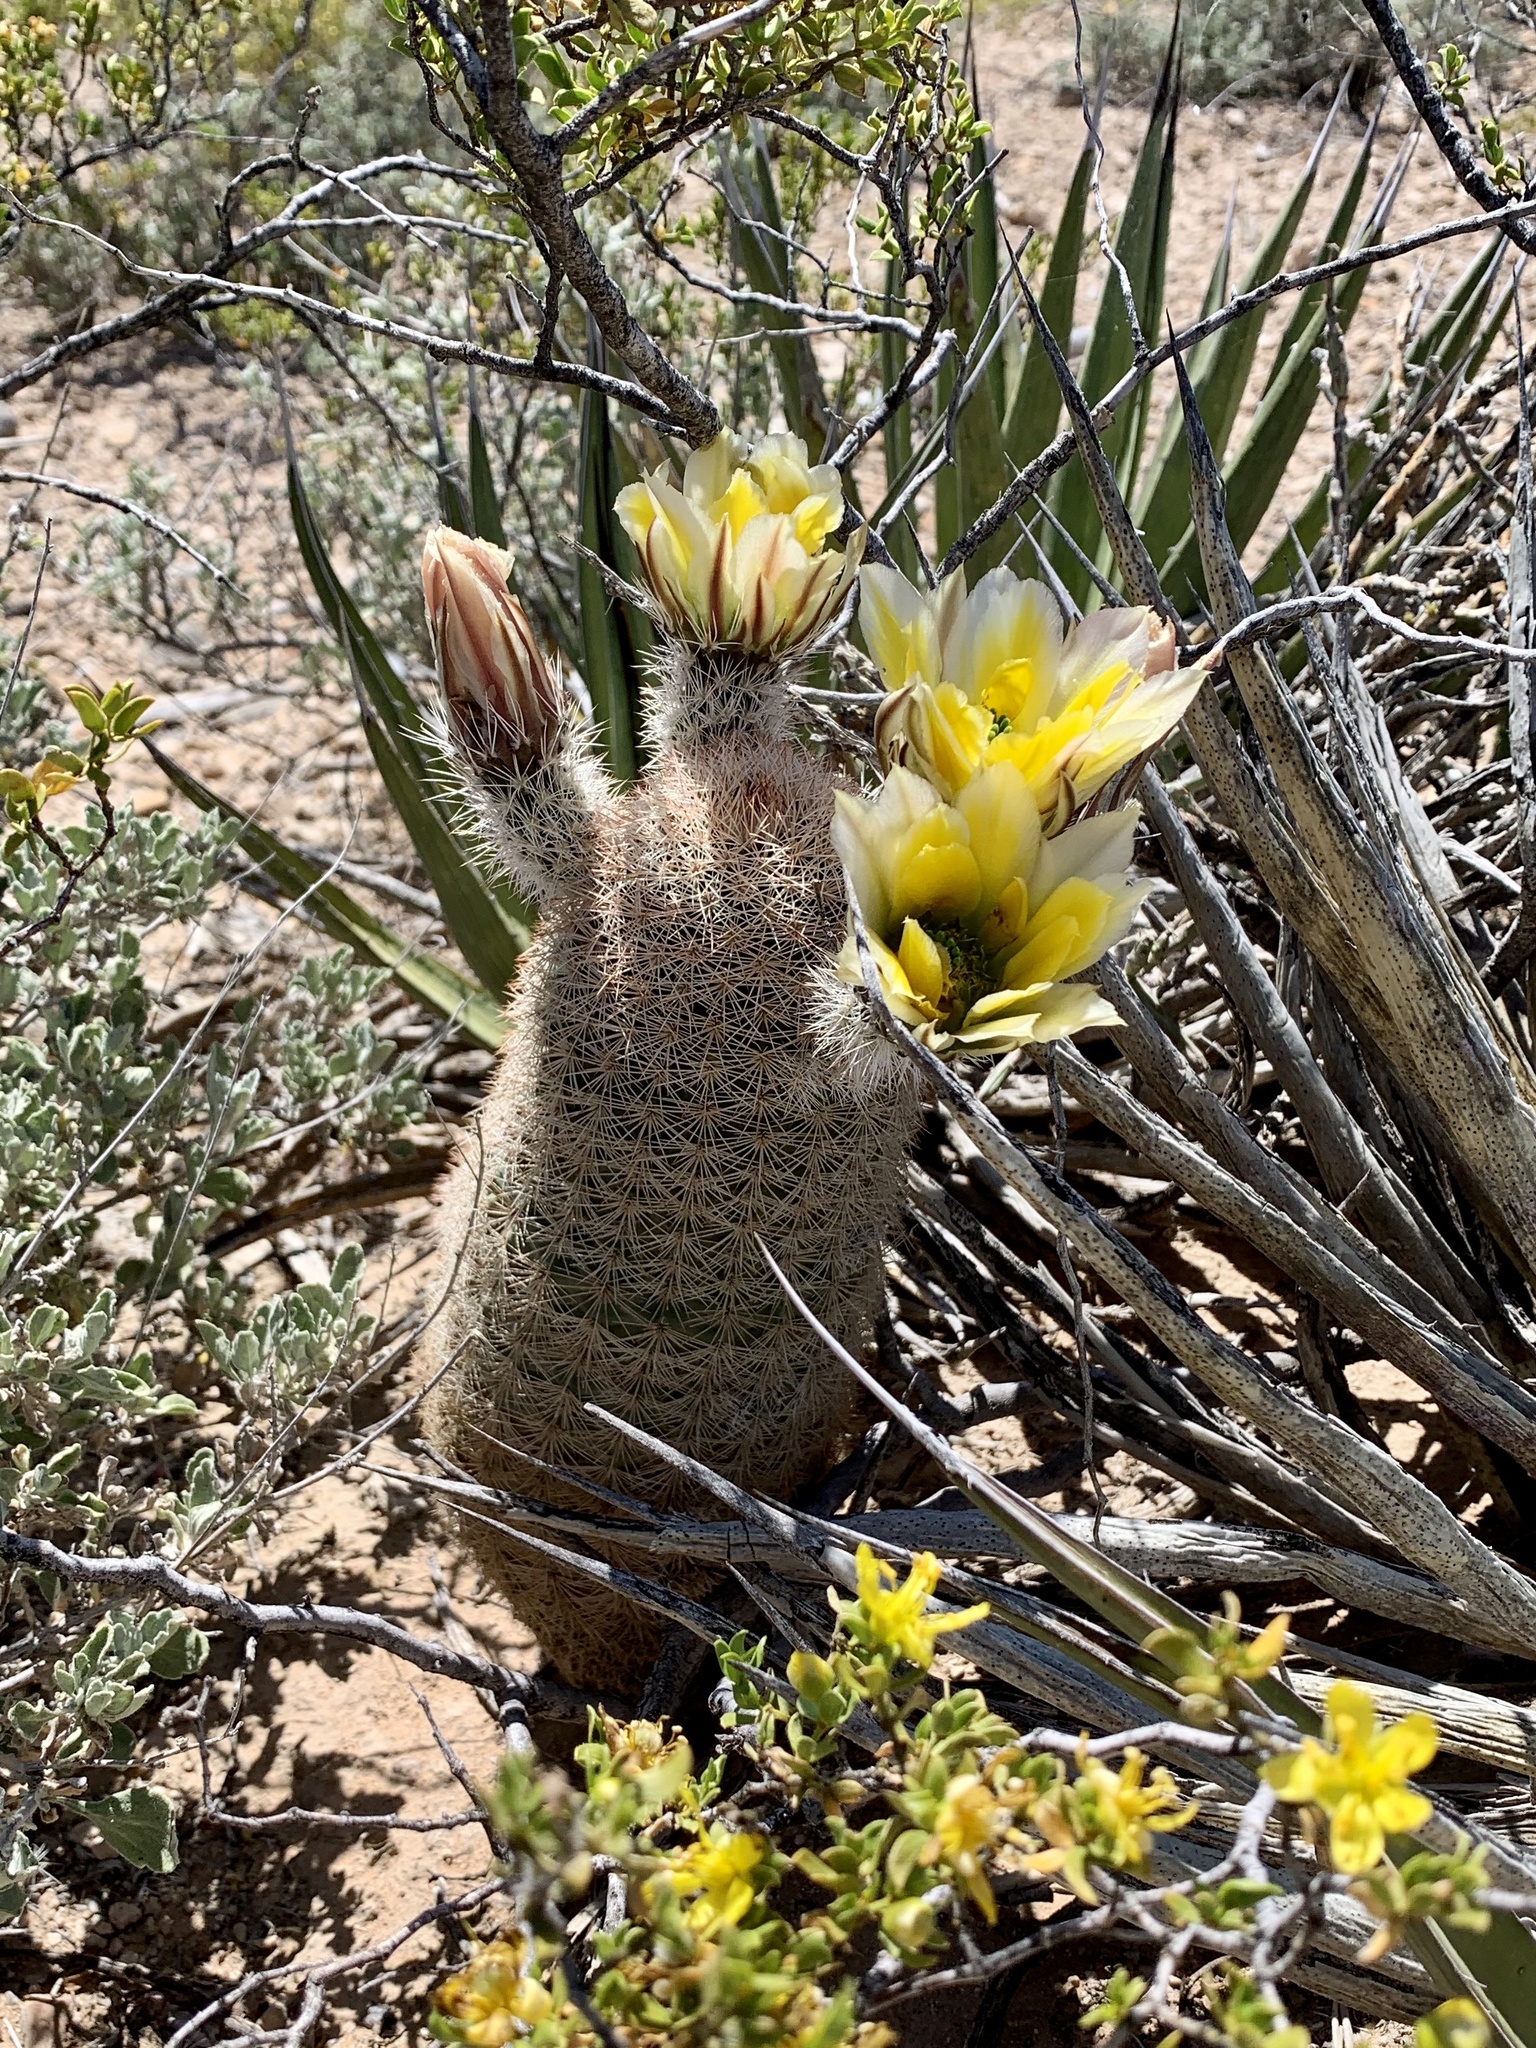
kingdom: Plantae
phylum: Tracheophyta
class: Magnoliopsida
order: Caryophyllales
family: Cactaceae
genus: Echinocereus
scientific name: Echinocereus dasyacanthus
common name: Spiny hedgehog cactus
